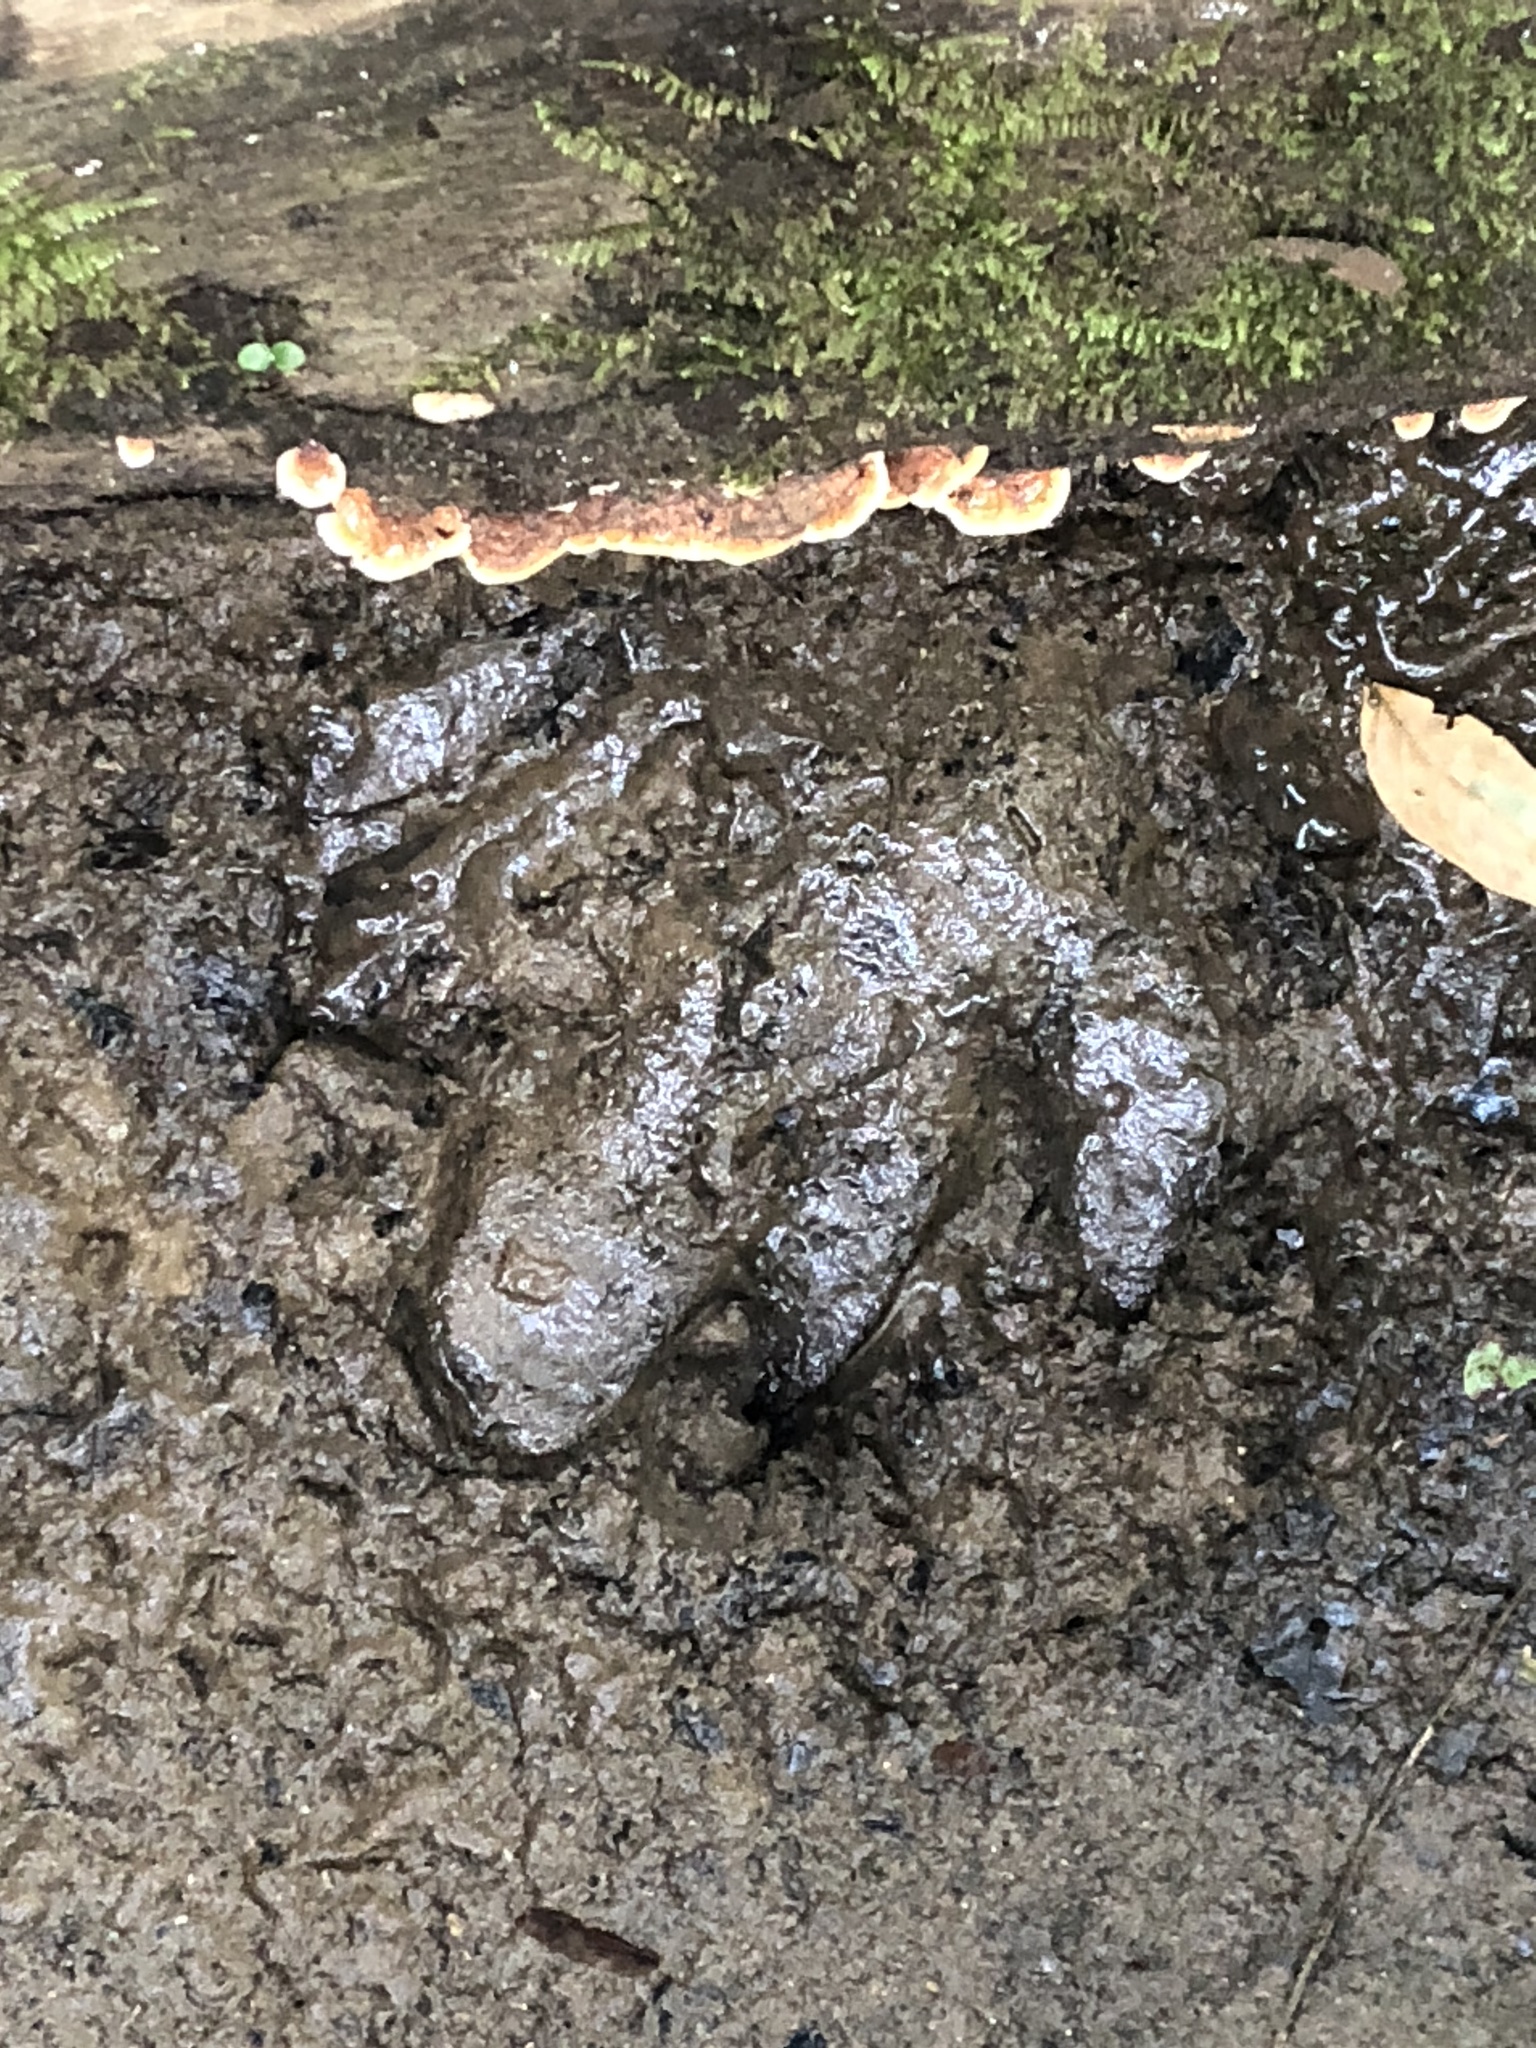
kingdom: Animalia
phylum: Chordata
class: Mammalia
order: Perissodactyla
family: Tapiridae
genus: Tapirus
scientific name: Tapirus terrestris
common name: Brazilian tapir
